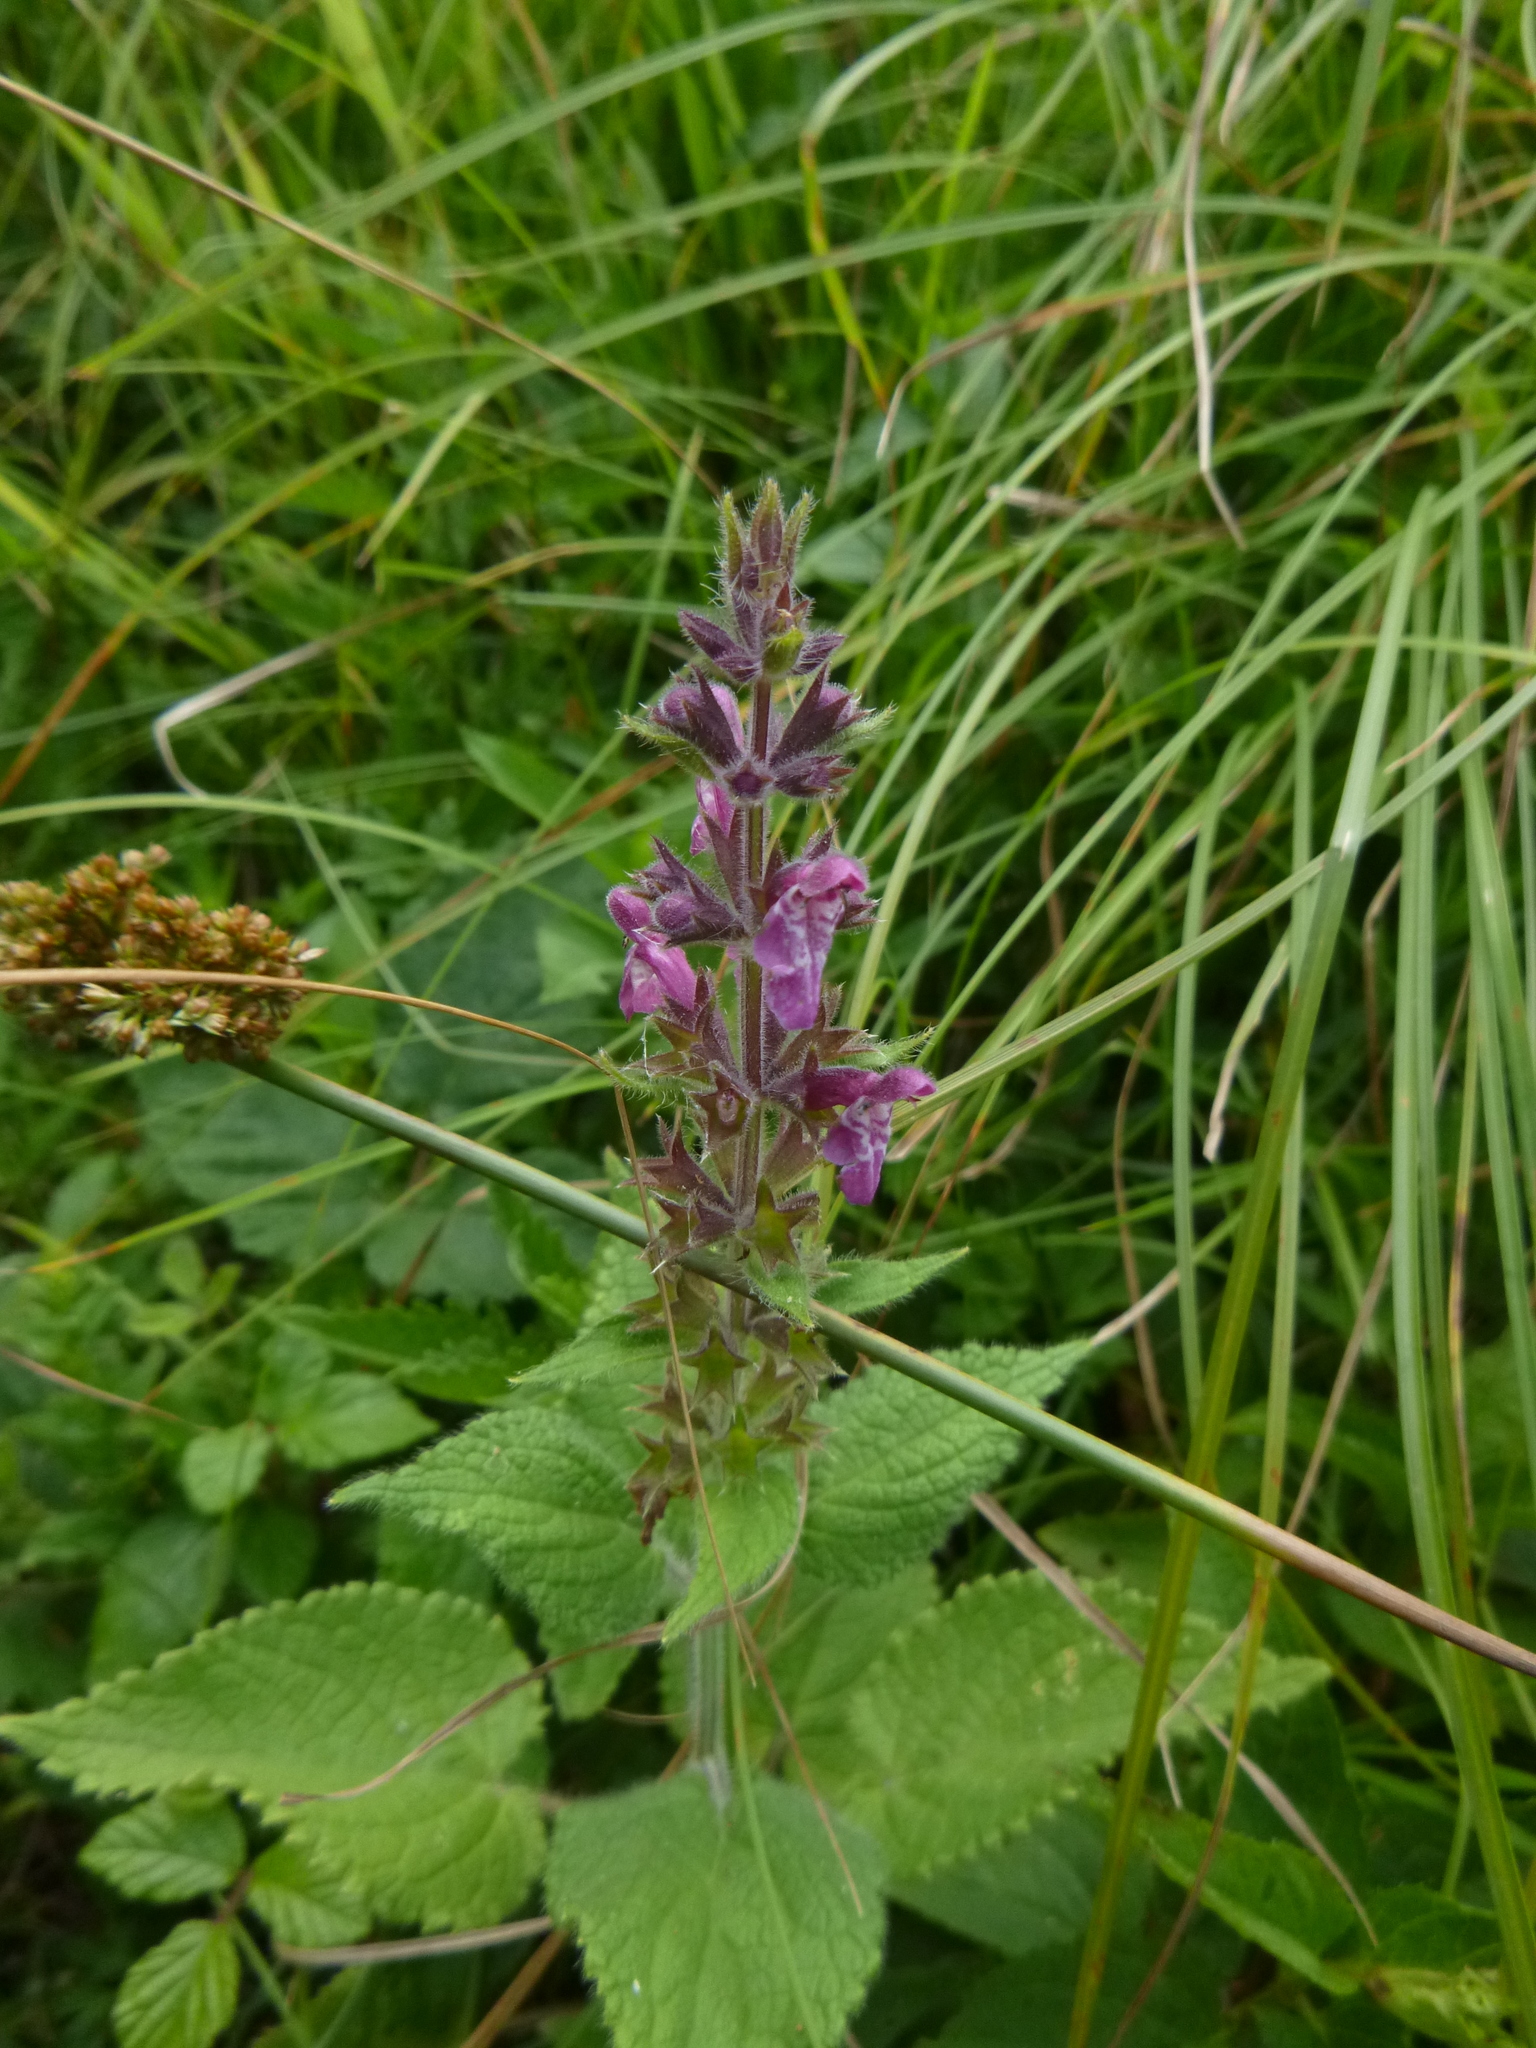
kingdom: Plantae
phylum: Tracheophyta
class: Magnoliopsida
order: Lamiales
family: Lamiaceae
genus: Stachys
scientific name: Stachys sylvatica
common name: Hedge woundwort
